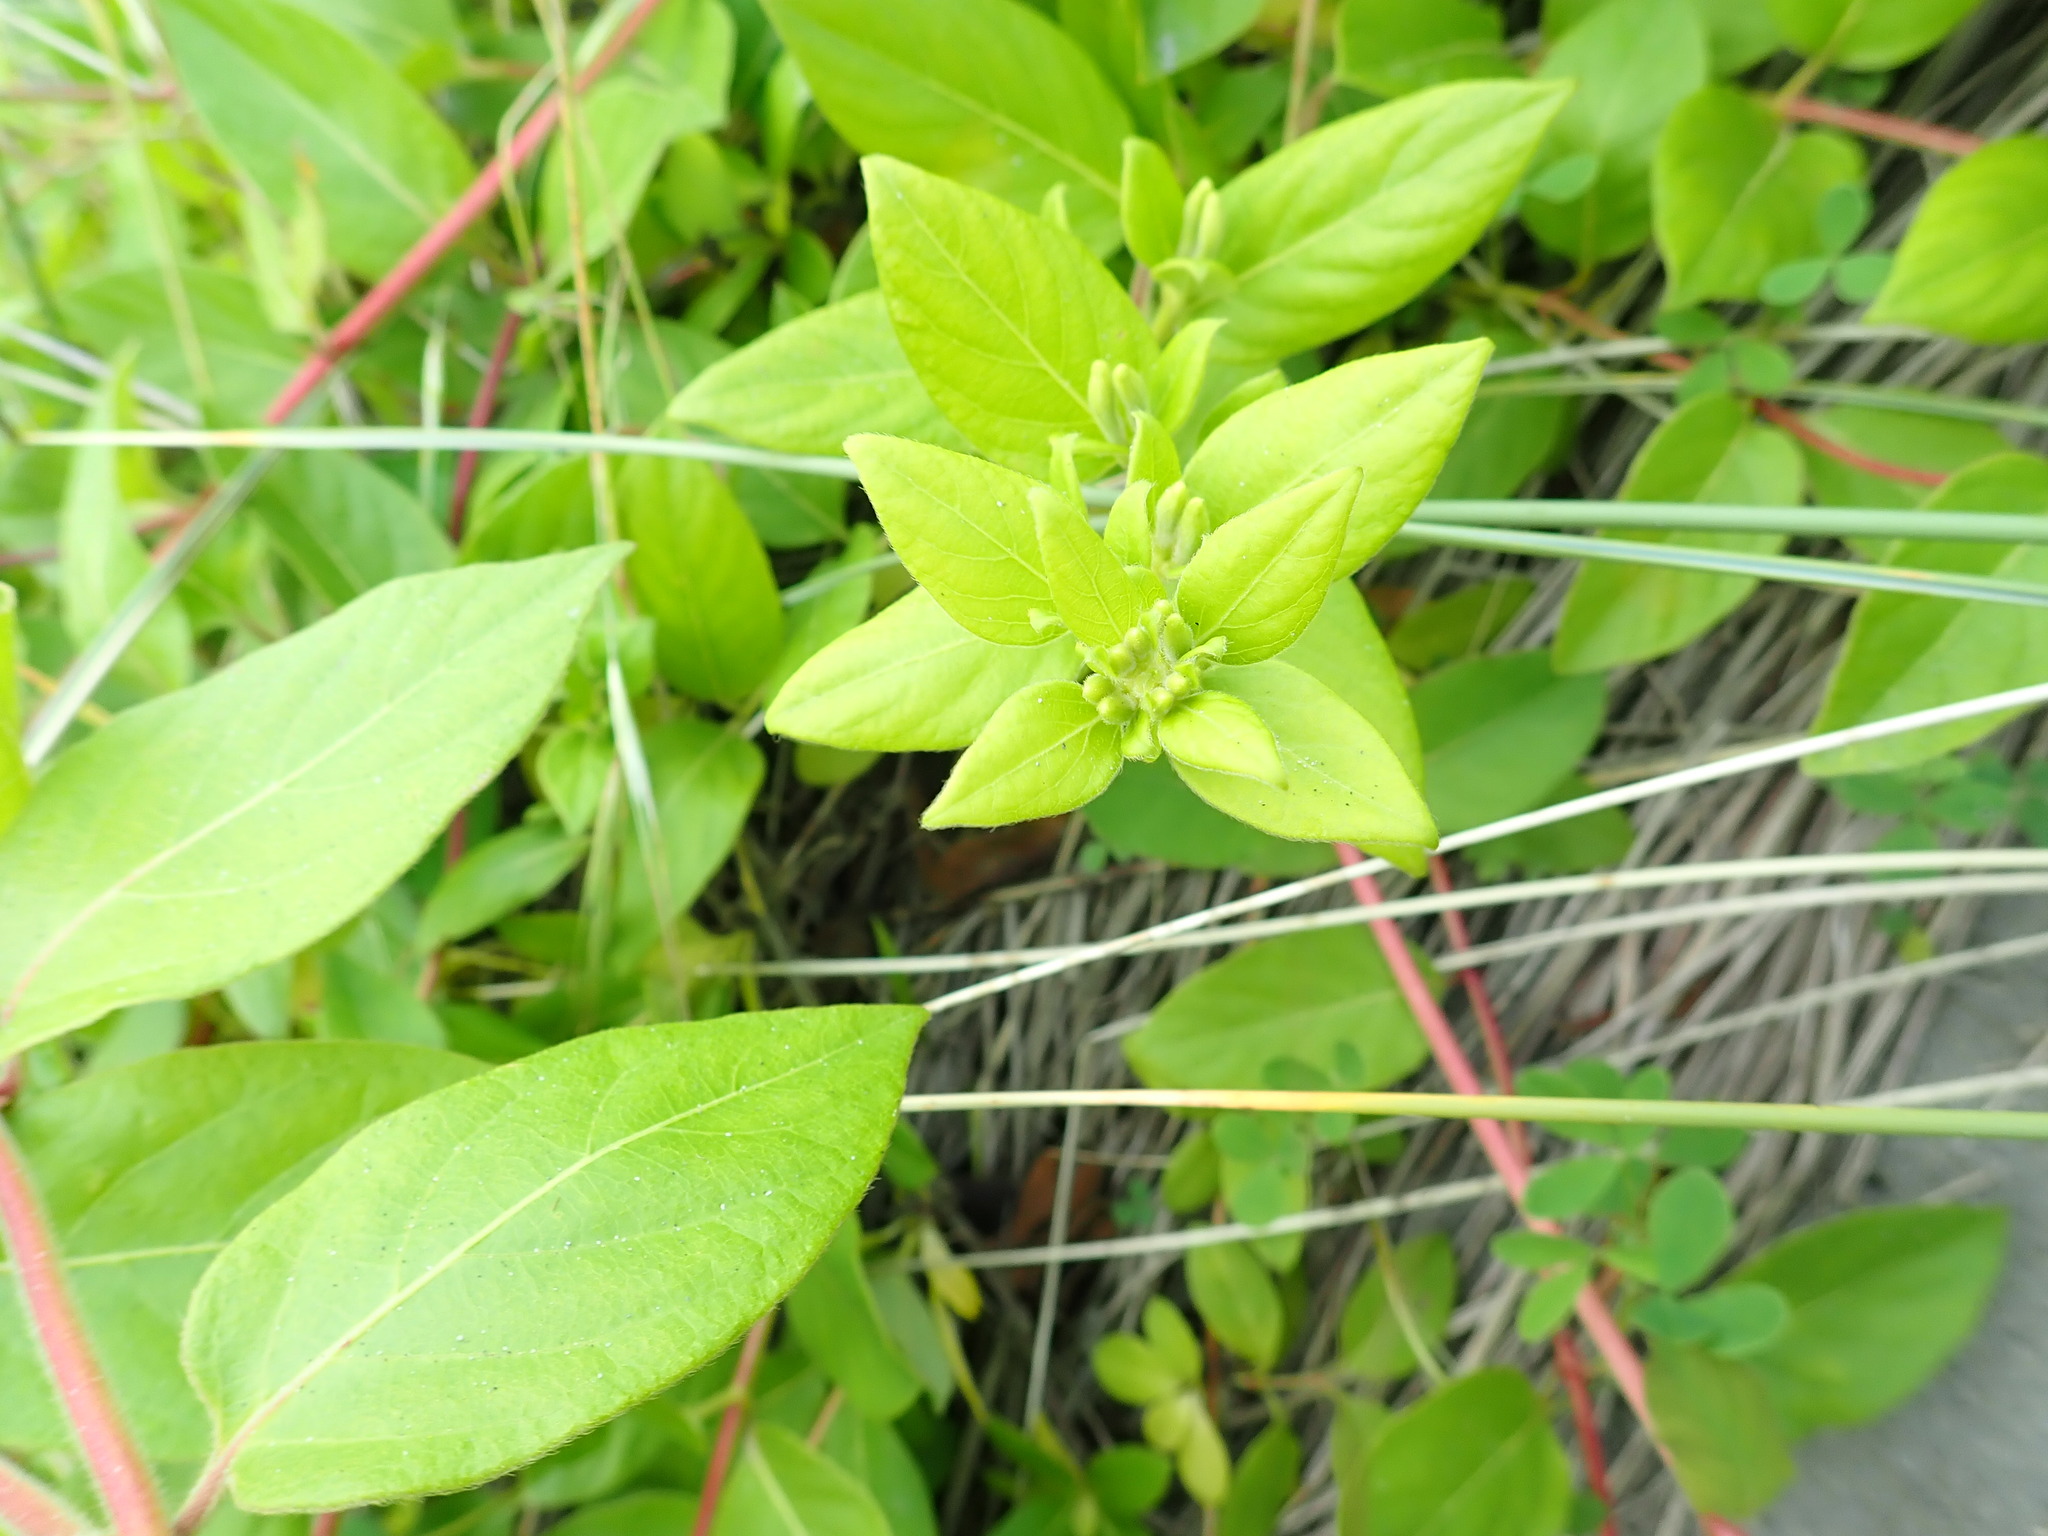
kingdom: Plantae
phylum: Tracheophyta
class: Magnoliopsida
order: Dipsacales
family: Caprifoliaceae
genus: Lonicera
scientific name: Lonicera japonica
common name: Japanese honeysuckle
